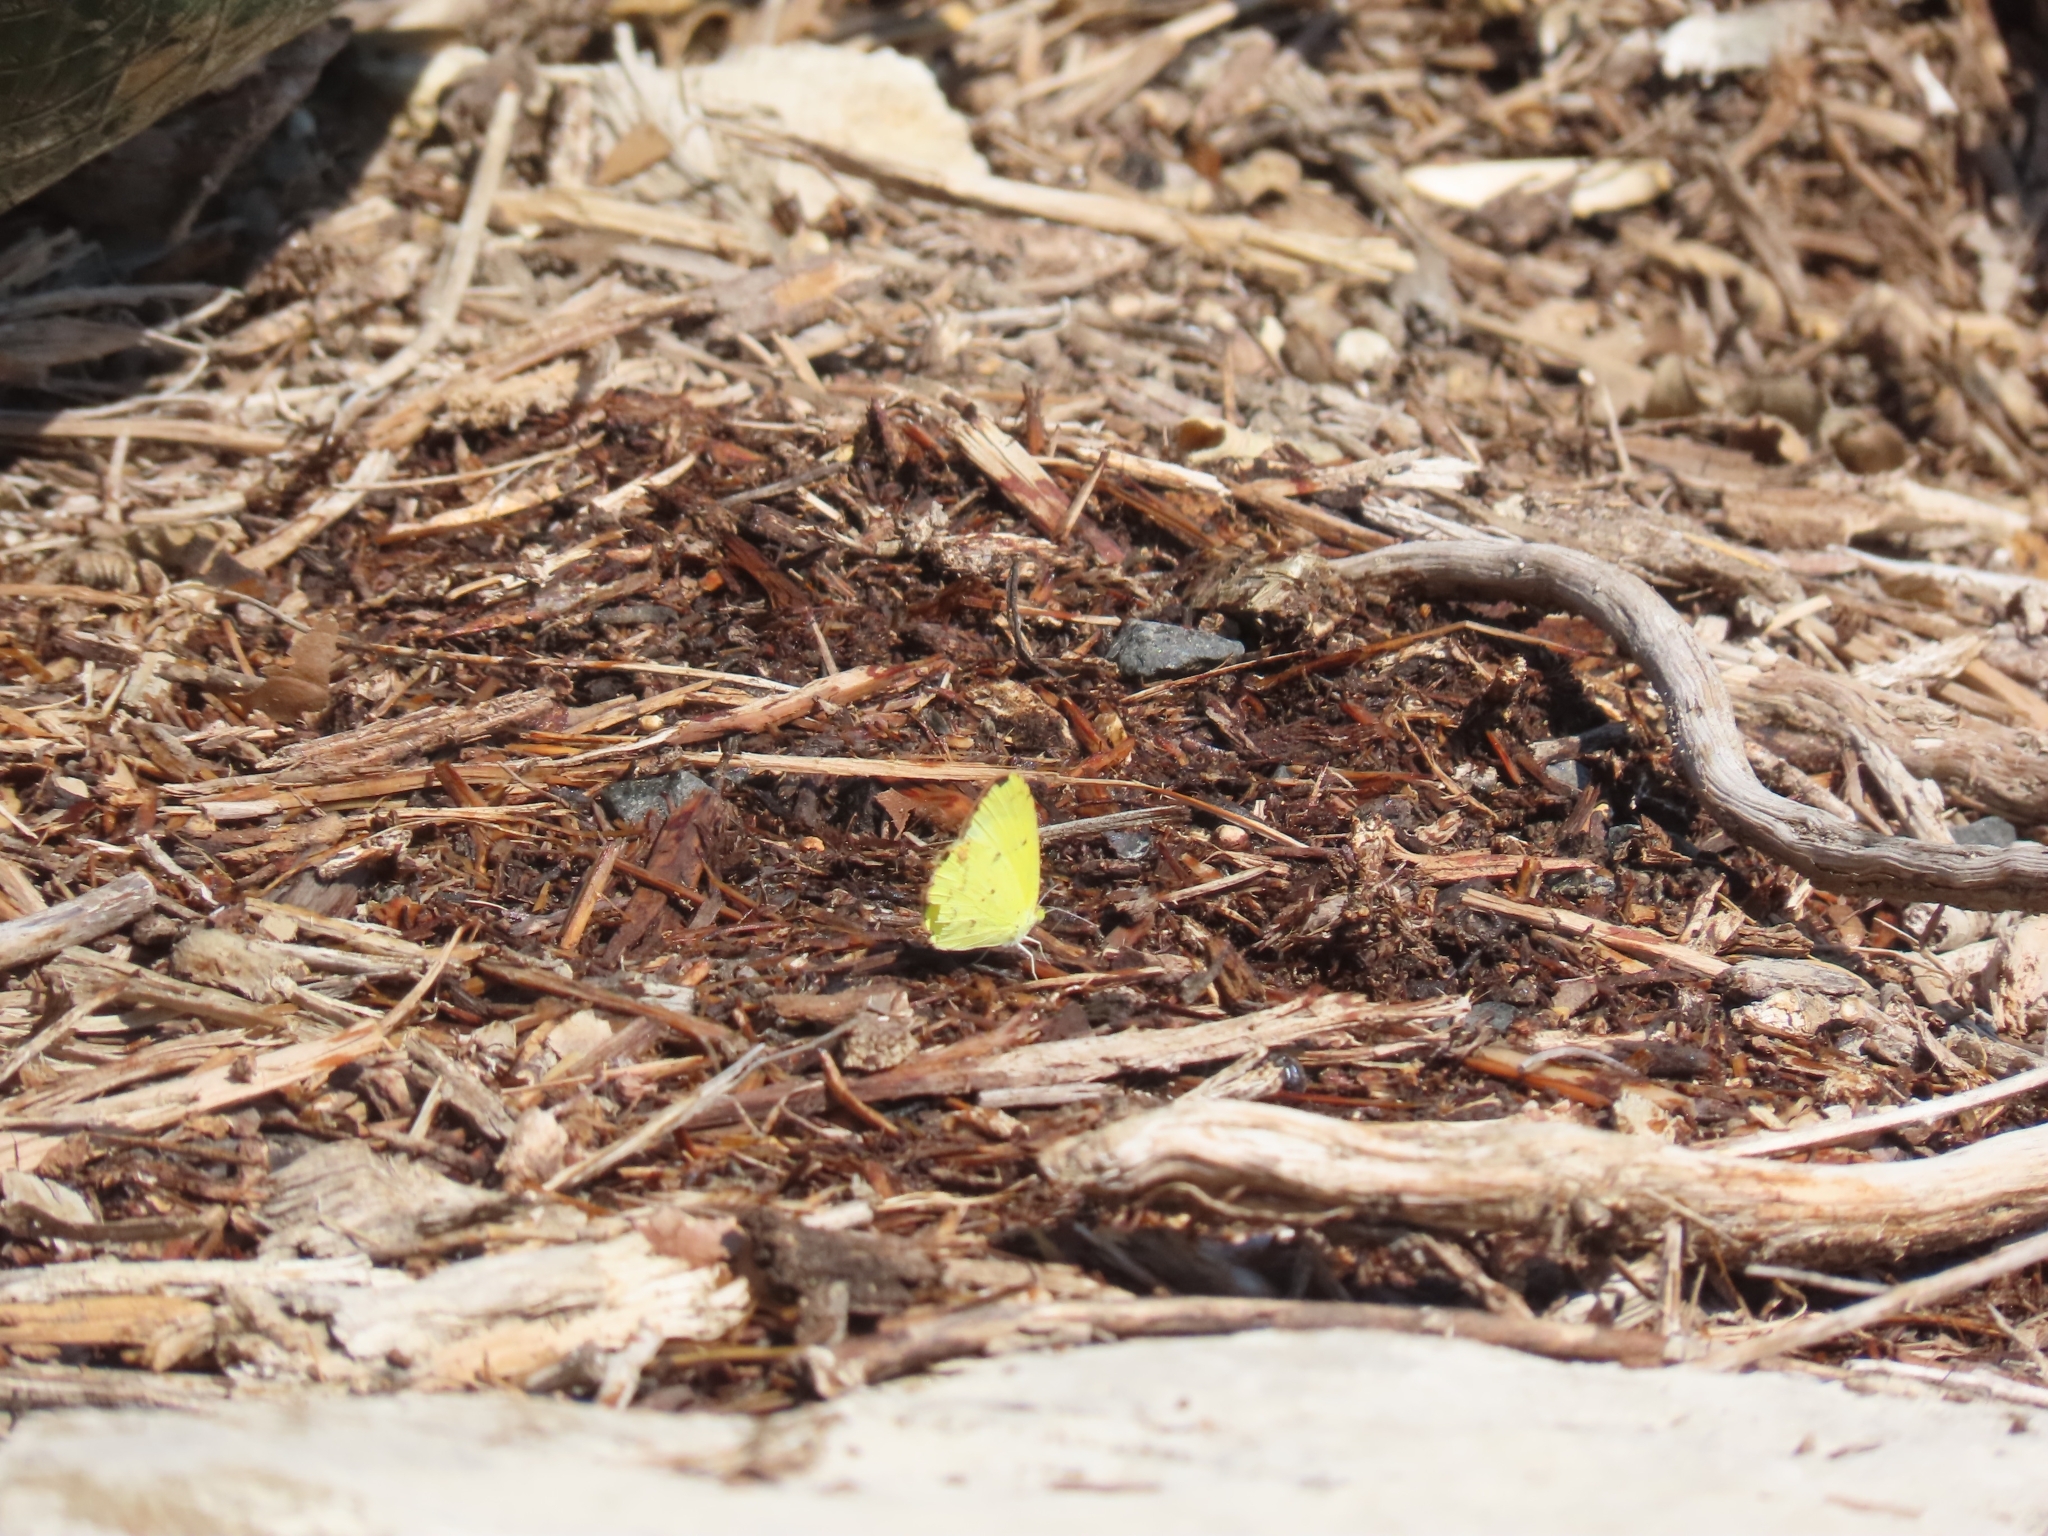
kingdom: Animalia
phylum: Arthropoda
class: Insecta
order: Lepidoptera
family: Pieridae
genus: Pyrisitia
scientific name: Pyrisitia lisa
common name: Little yellow
